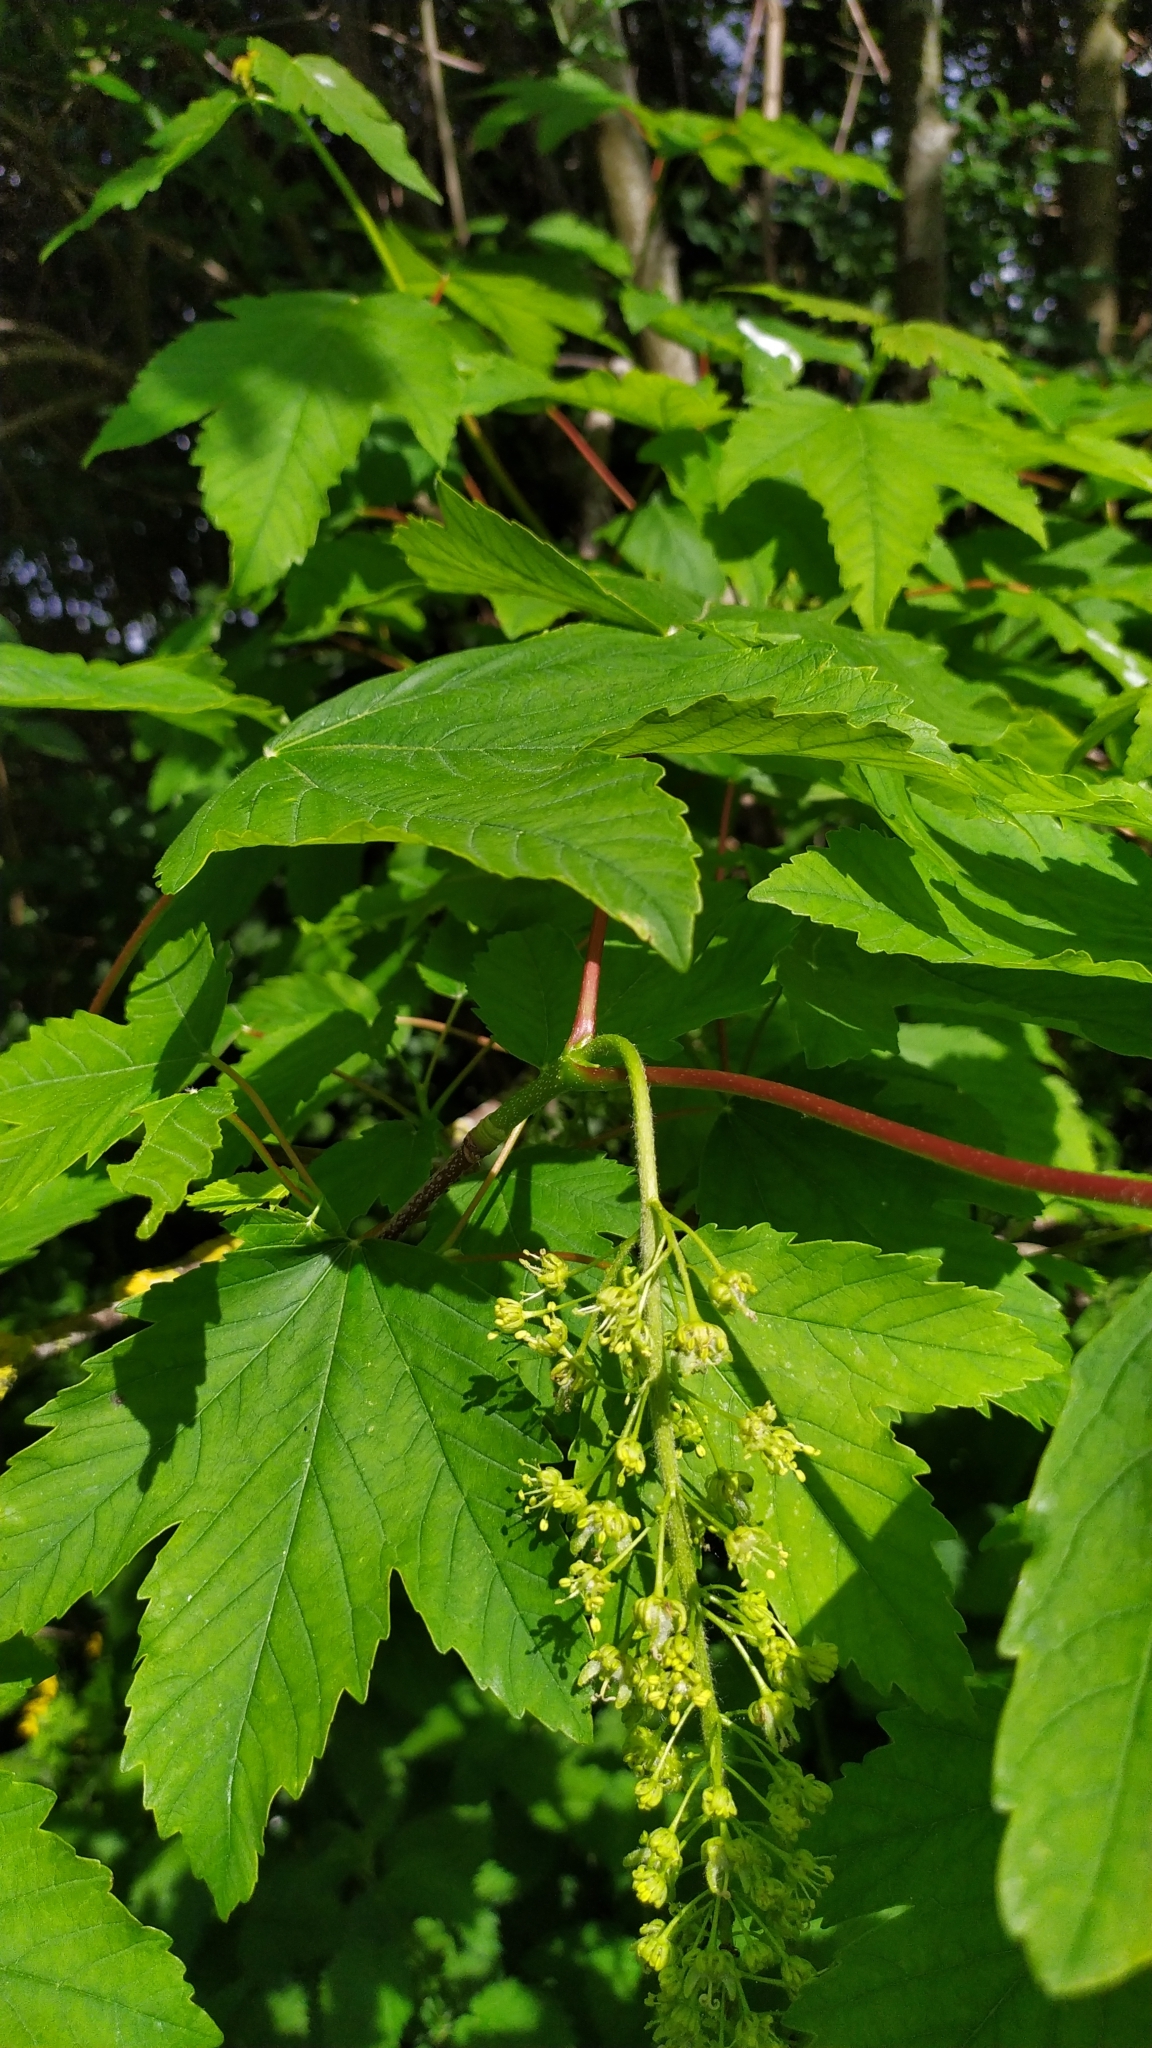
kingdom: Plantae
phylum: Tracheophyta
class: Magnoliopsida
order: Sapindales
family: Sapindaceae
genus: Acer
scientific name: Acer pseudoplatanus
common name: Sycamore
